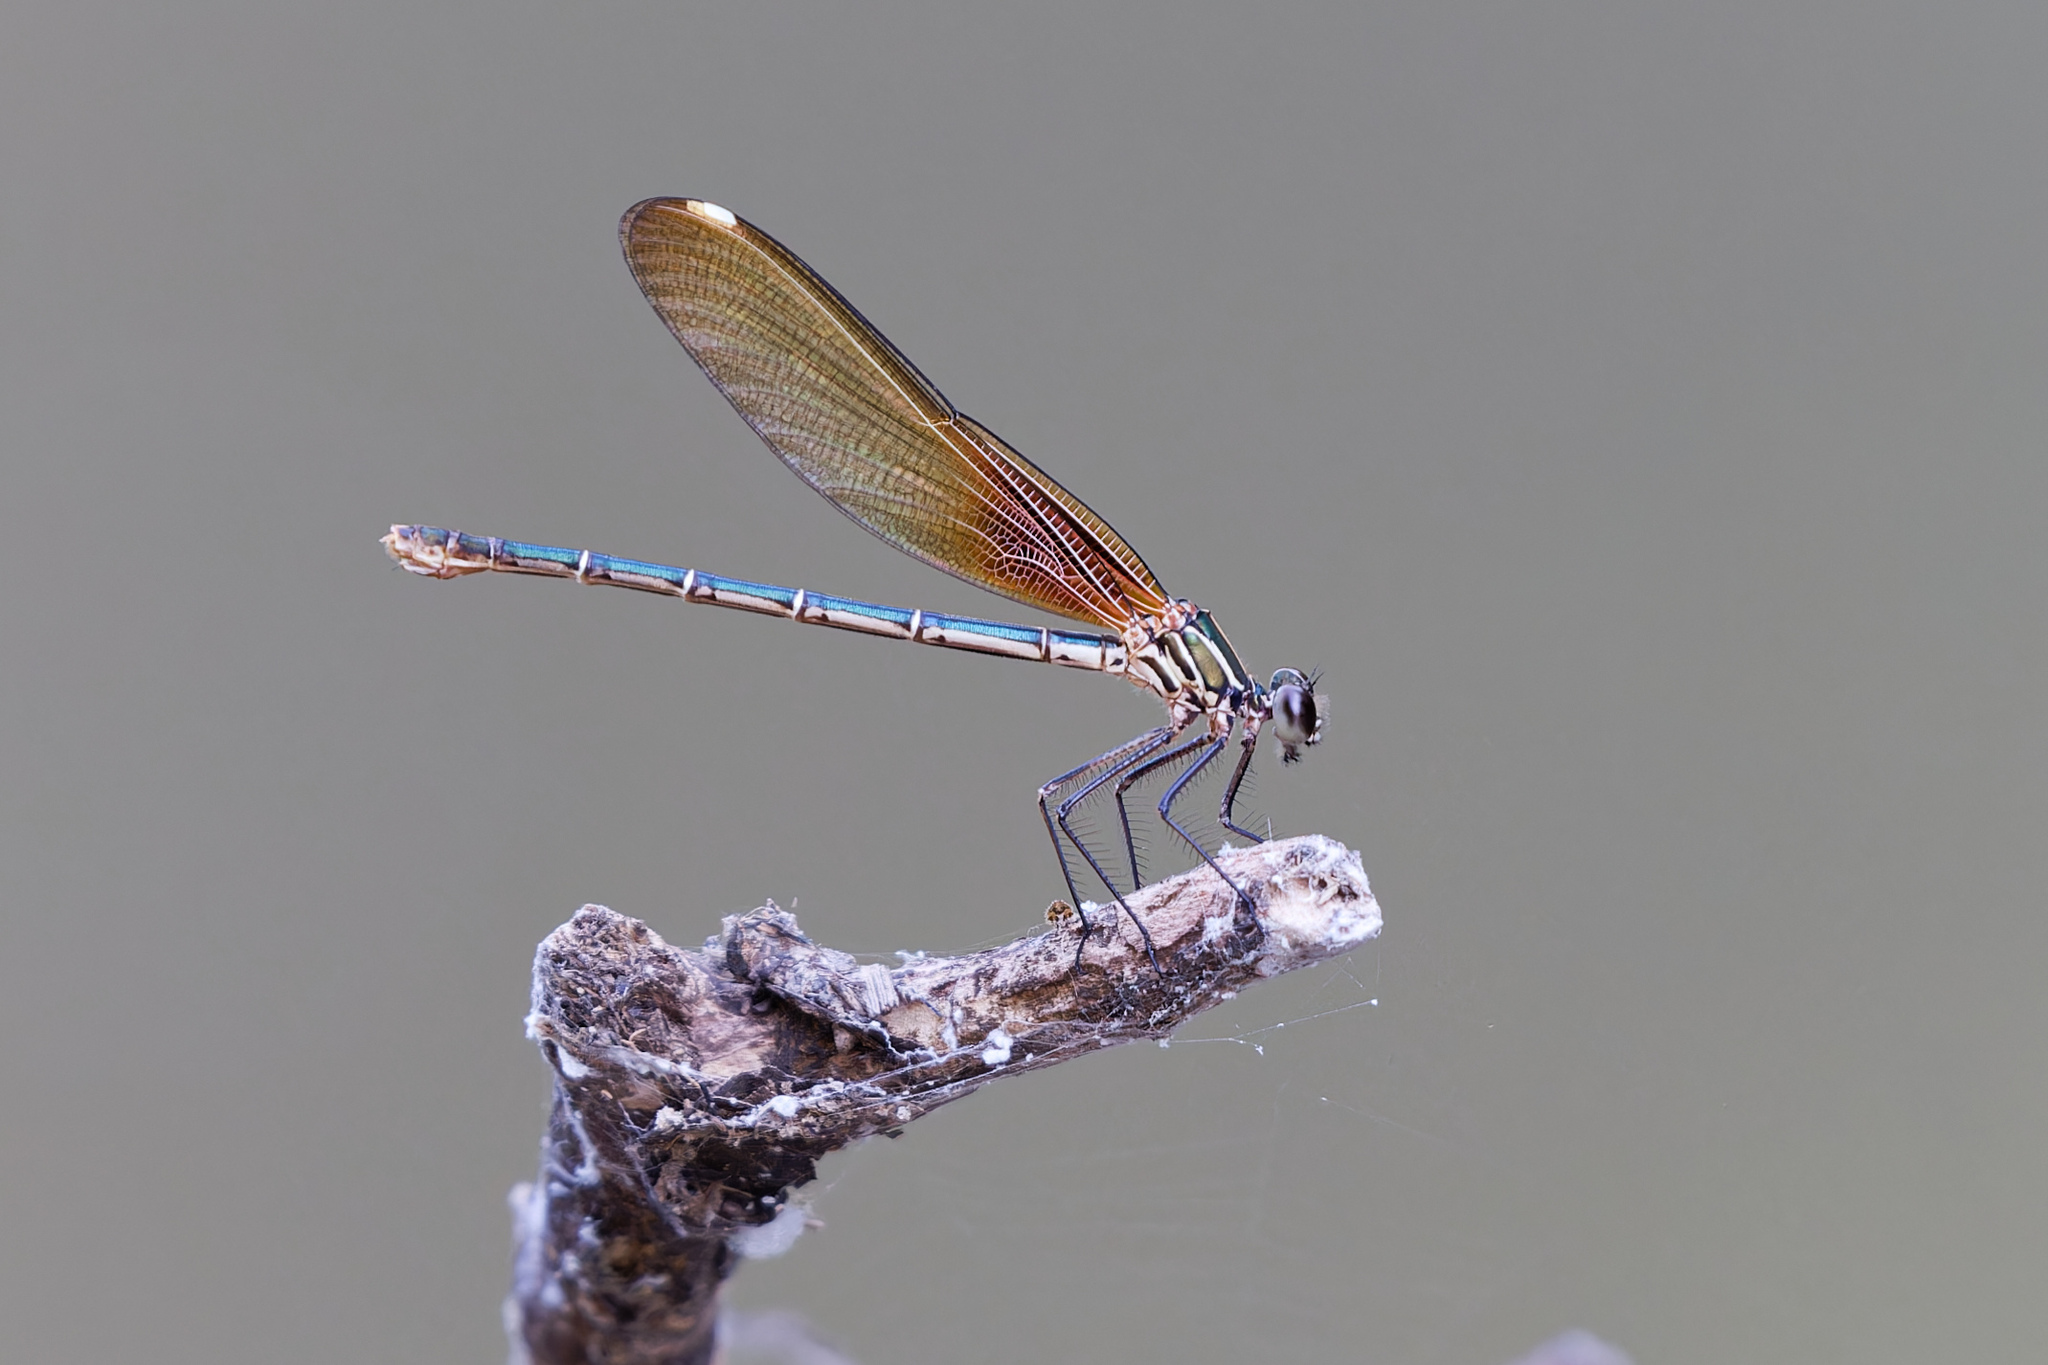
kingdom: Animalia
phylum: Arthropoda
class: Insecta
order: Odonata
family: Calopterygidae
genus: Hetaerina
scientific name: Hetaerina americana
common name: American rubyspot
